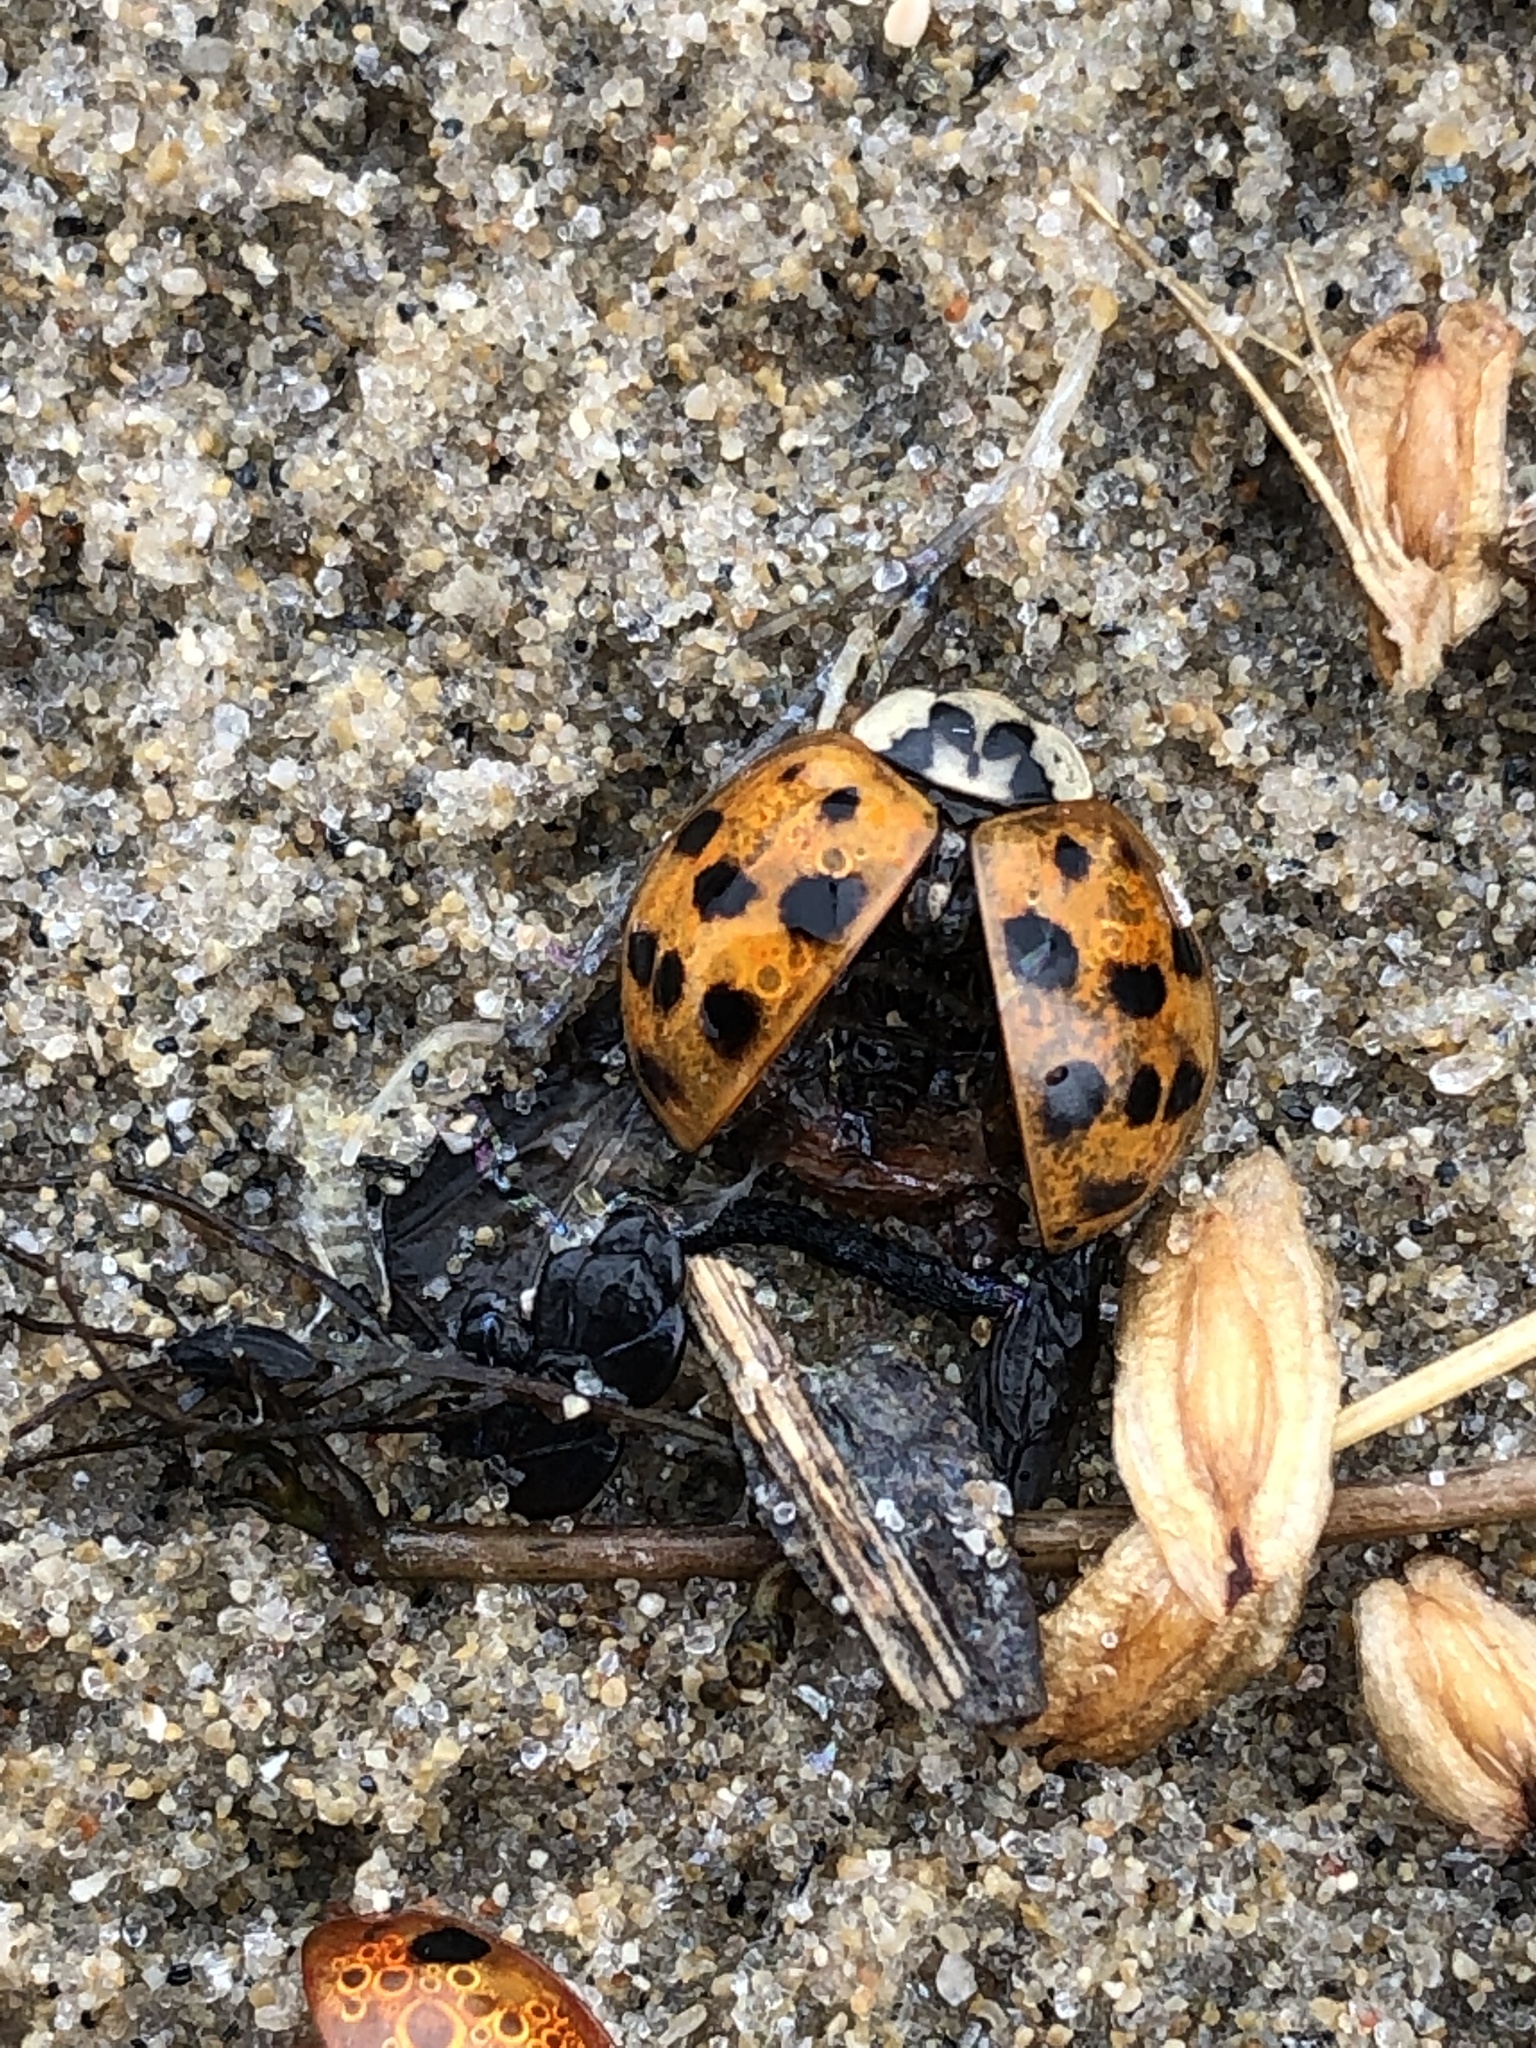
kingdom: Animalia
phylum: Arthropoda
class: Insecta
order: Coleoptera
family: Coccinellidae
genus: Harmonia
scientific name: Harmonia axyridis
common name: Harlequin ladybird
